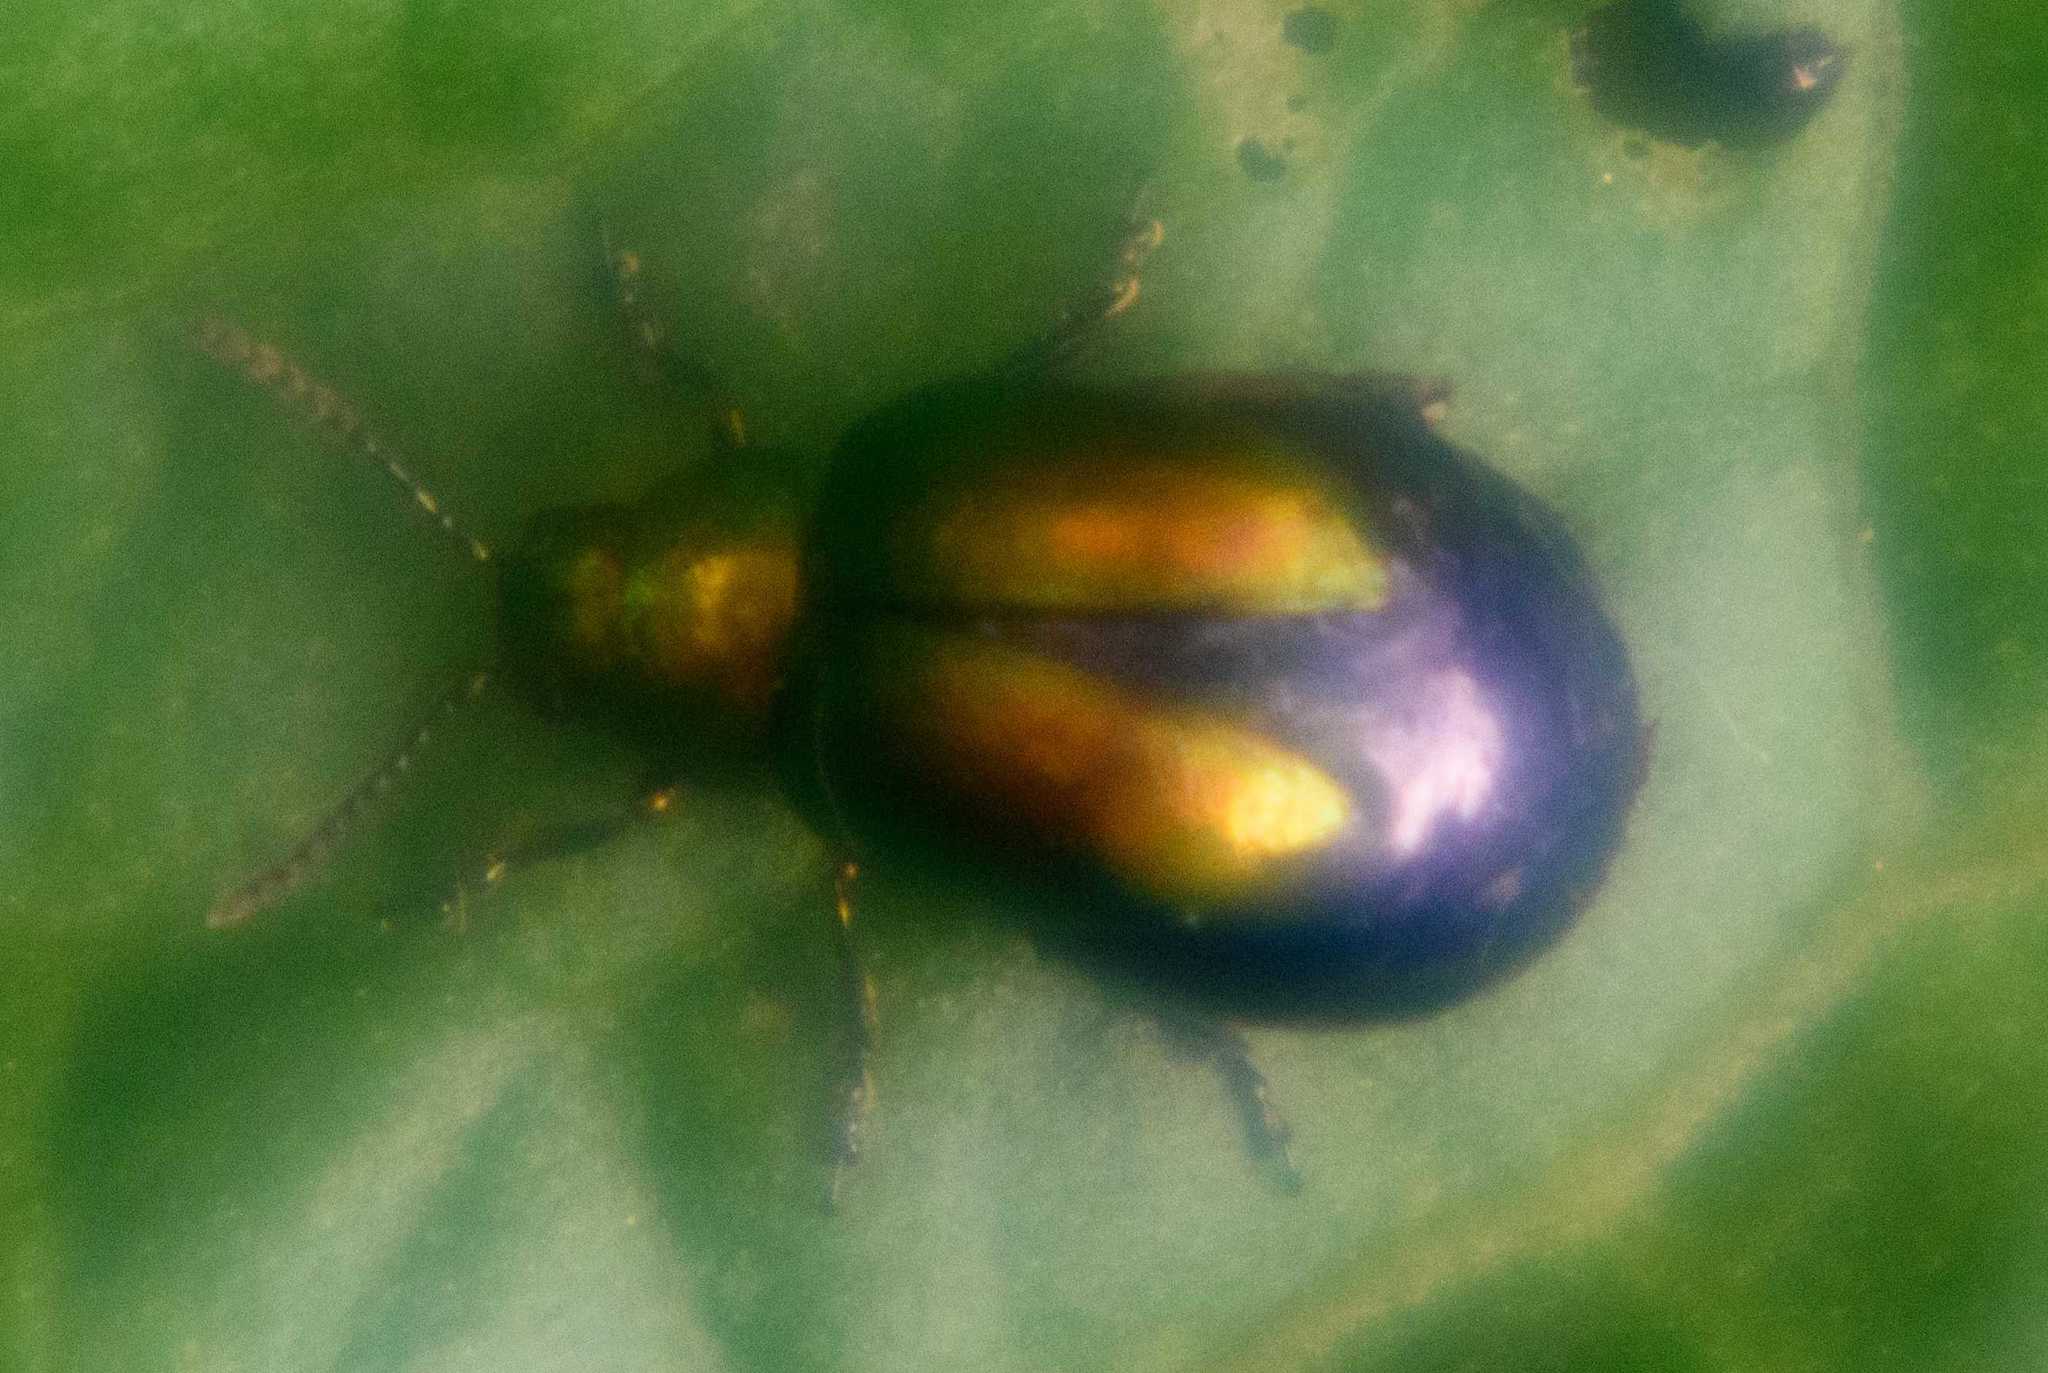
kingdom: Animalia
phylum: Arthropoda
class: Insecta
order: Coleoptera
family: Chrysomelidae
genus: Gastrophysa
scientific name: Gastrophysa viridula
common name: Green dock beetle
